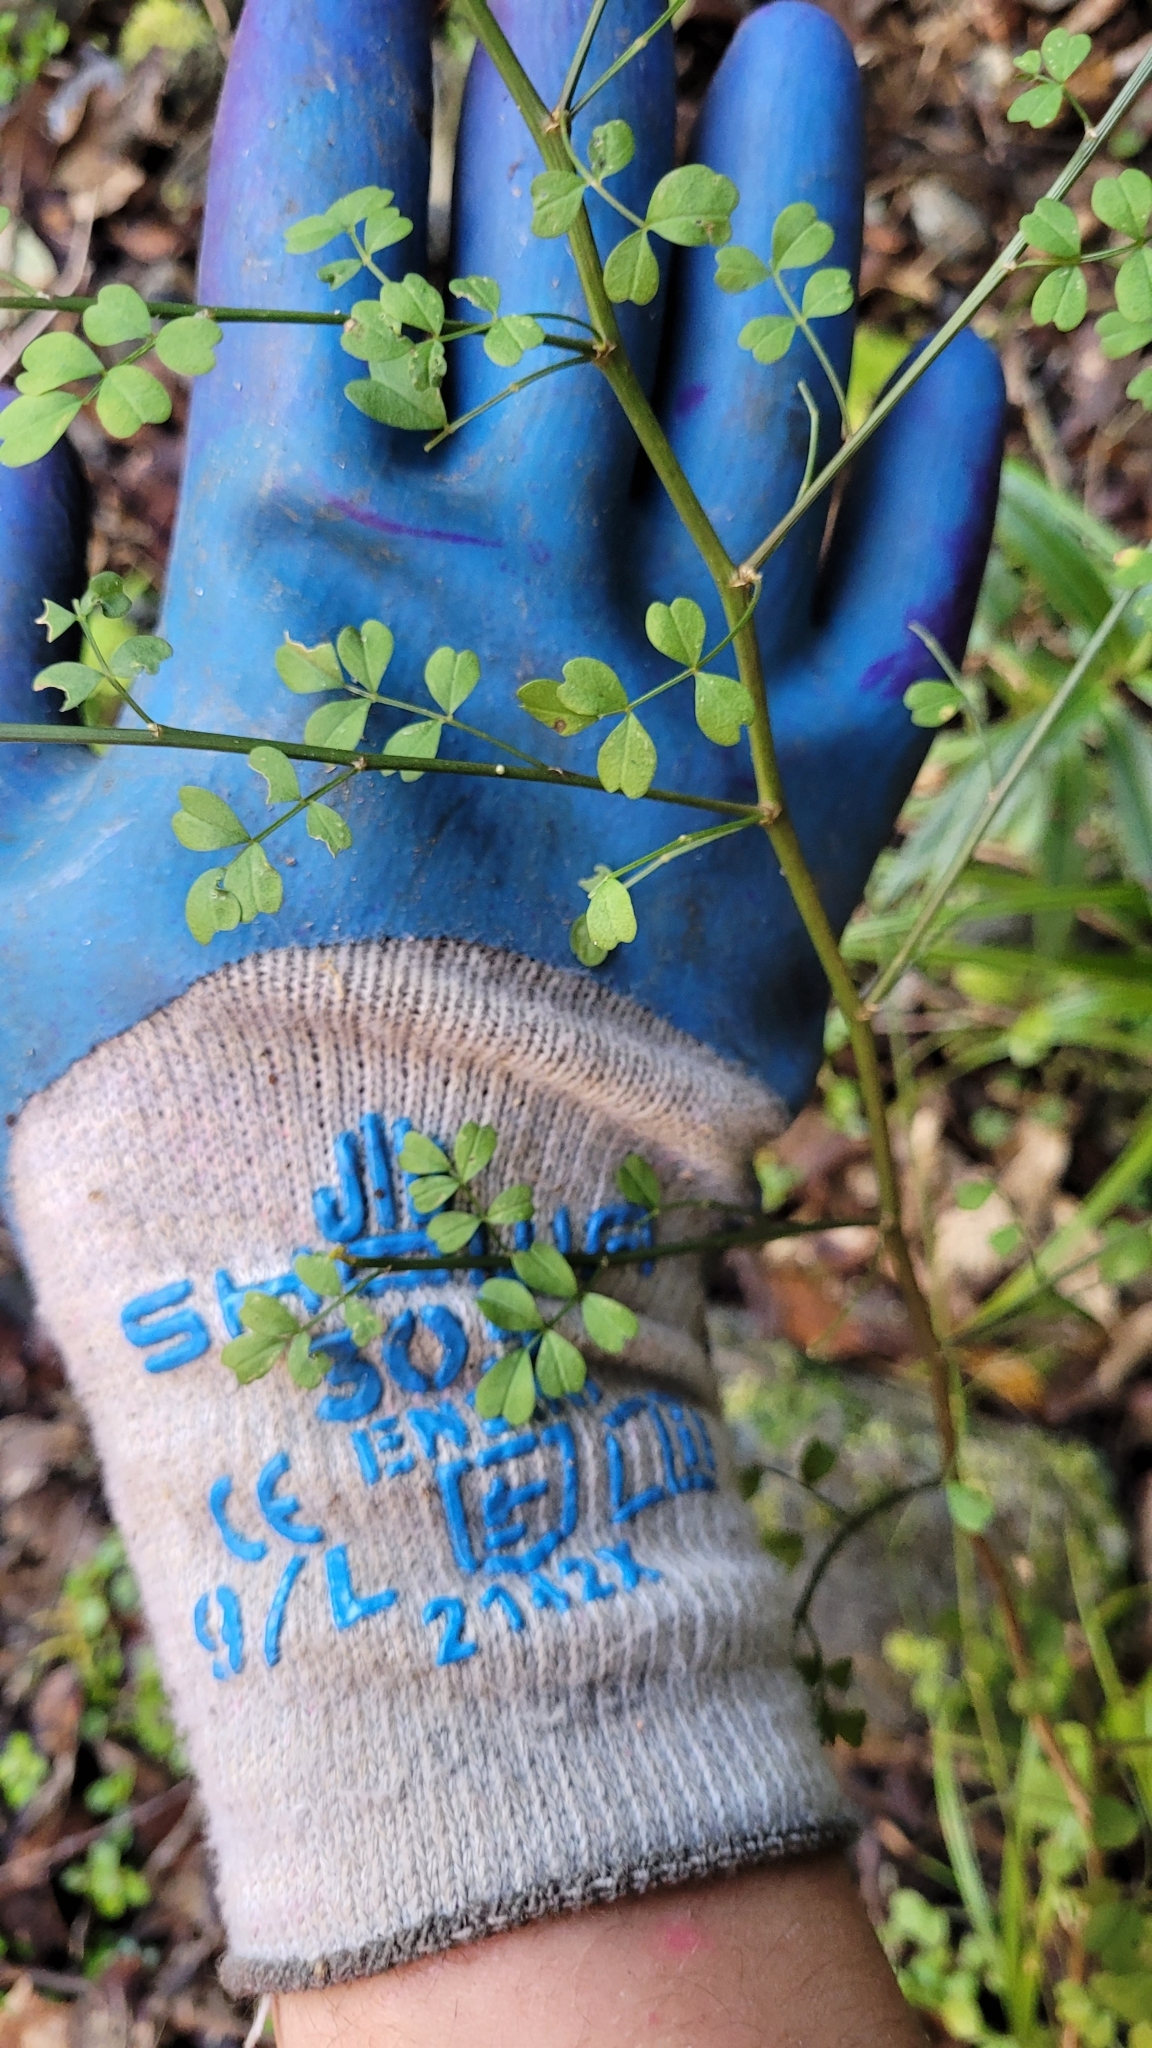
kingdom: Plantae
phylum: Tracheophyta
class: Magnoliopsida
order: Fabales
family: Fabaceae
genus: Carmichaelia
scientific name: Carmichaelia australis
